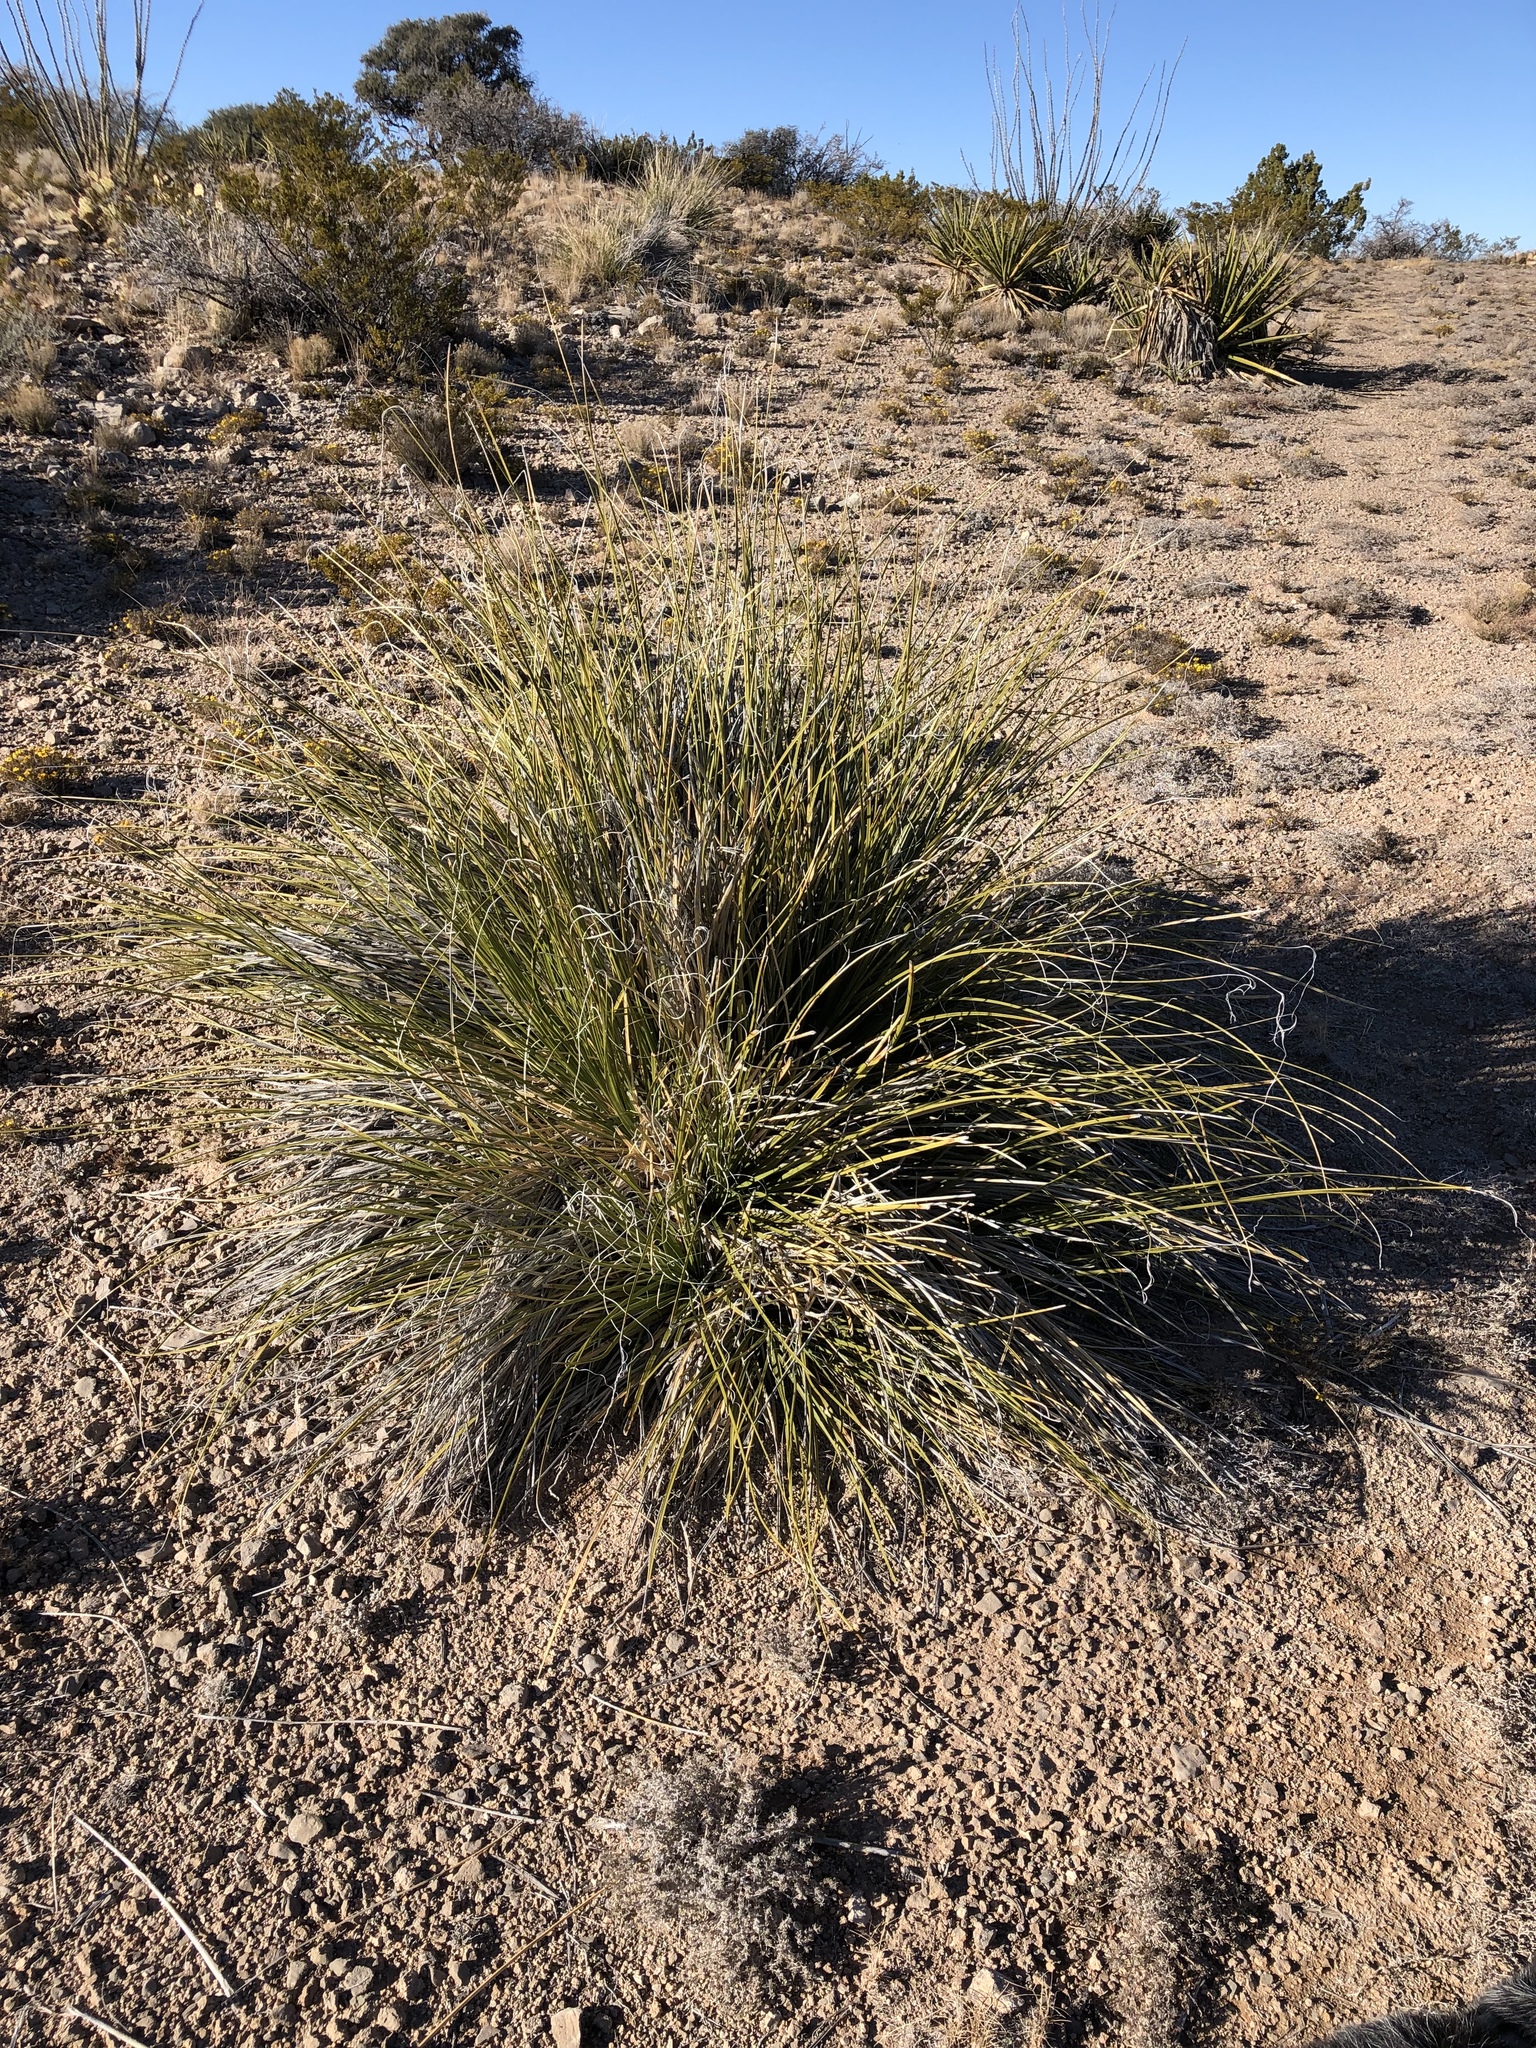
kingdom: Plantae
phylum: Tracheophyta
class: Liliopsida
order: Asparagales
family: Asparagaceae
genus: Nolina
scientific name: Nolina microcarpa
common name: Bear-grass
